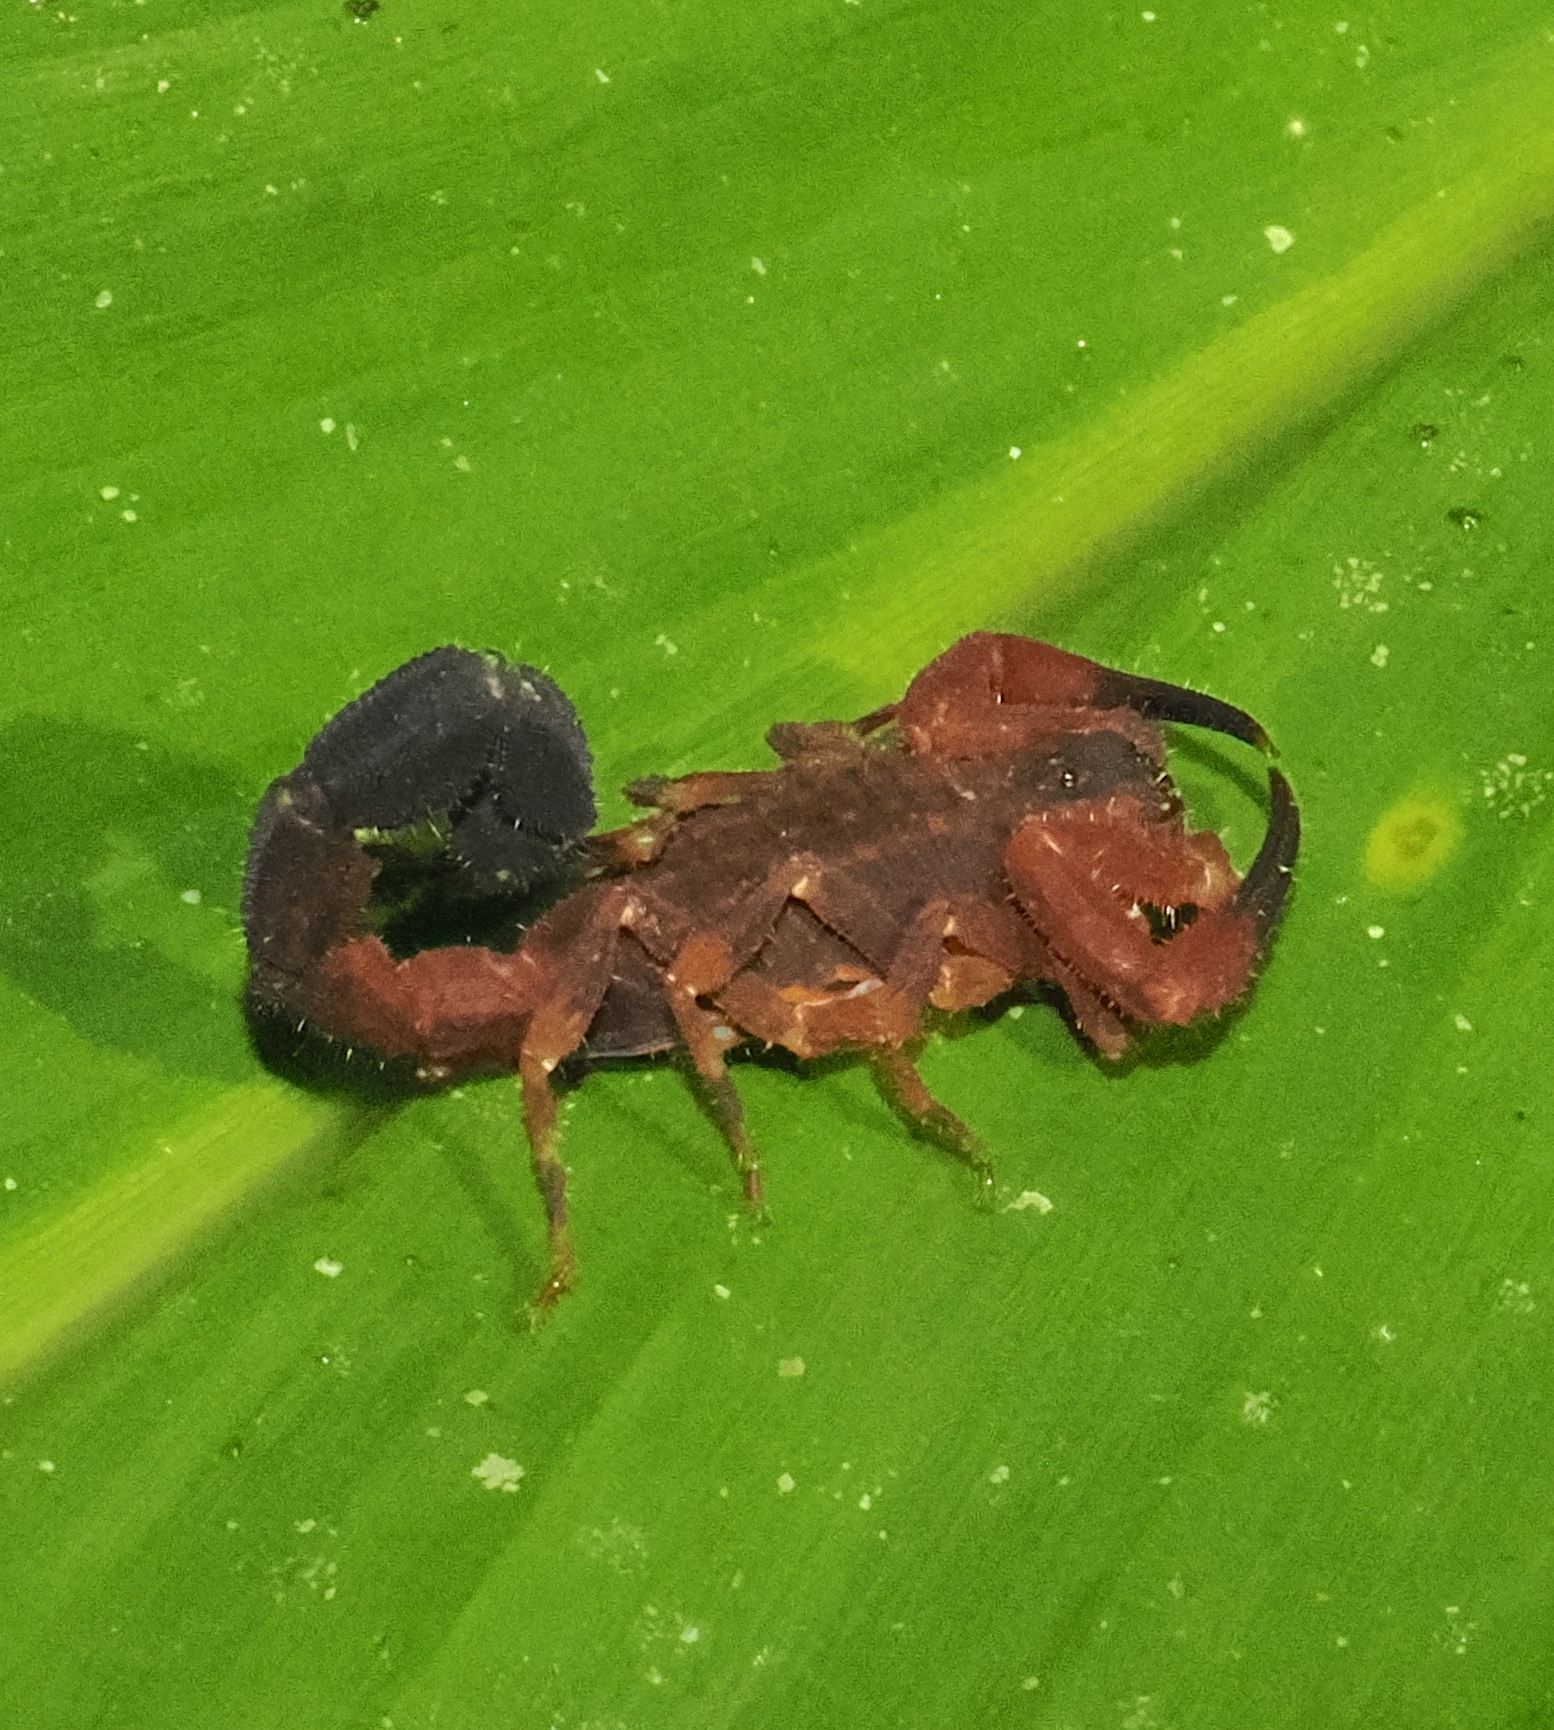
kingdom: Animalia
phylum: Arthropoda
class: Arachnida
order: Scorpiones
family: Buthidae
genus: Tityus
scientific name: Tityus forcipula
